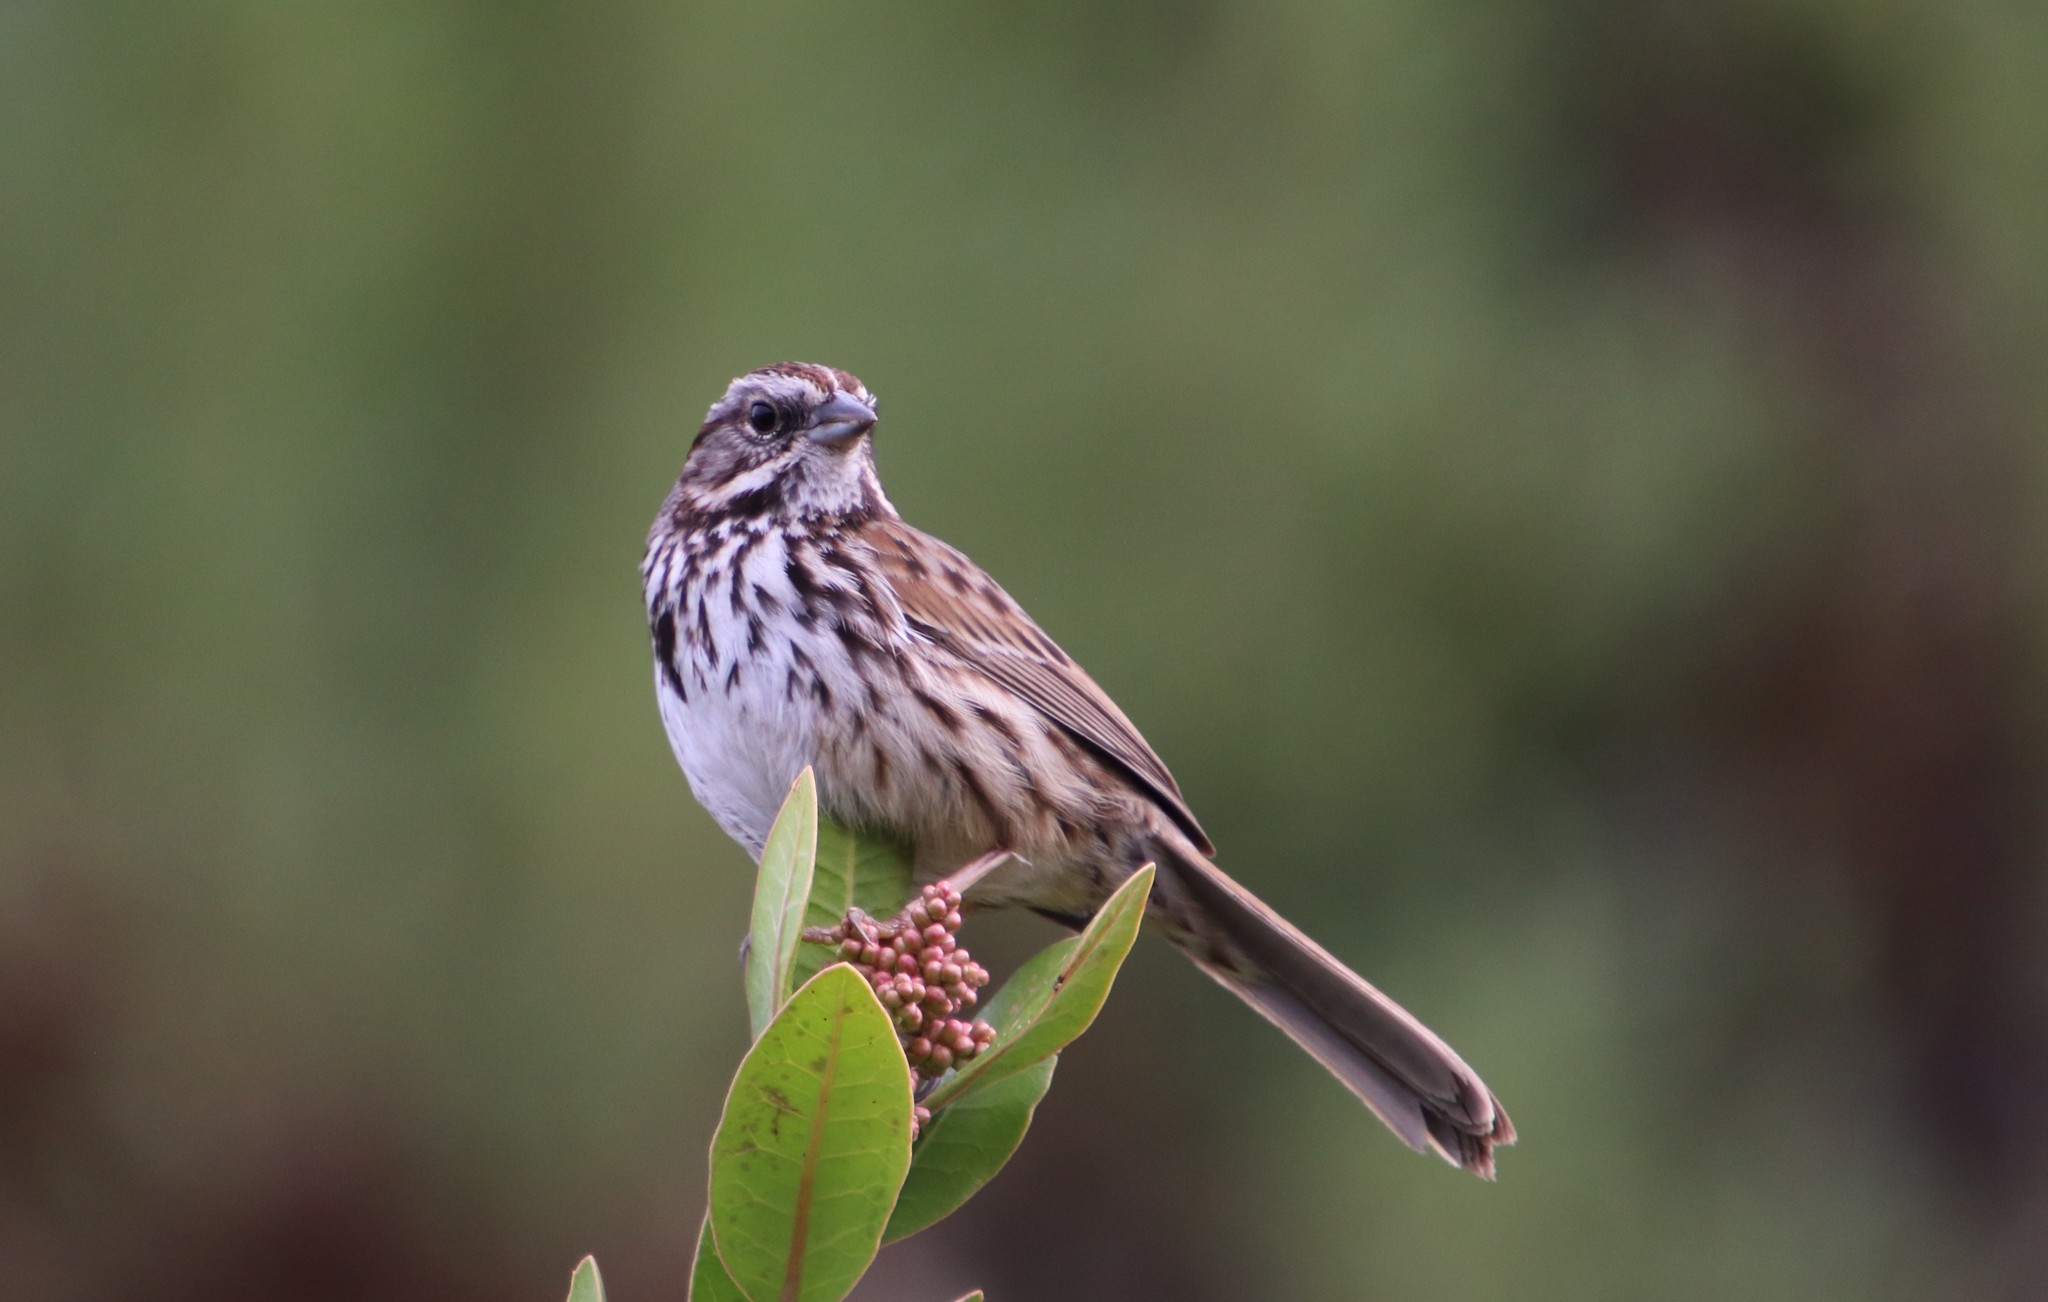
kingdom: Animalia
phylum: Chordata
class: Aves
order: Passeriformes
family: Passerellidae
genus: Melospiza
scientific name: Melospiza melodia
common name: Song sparrow
